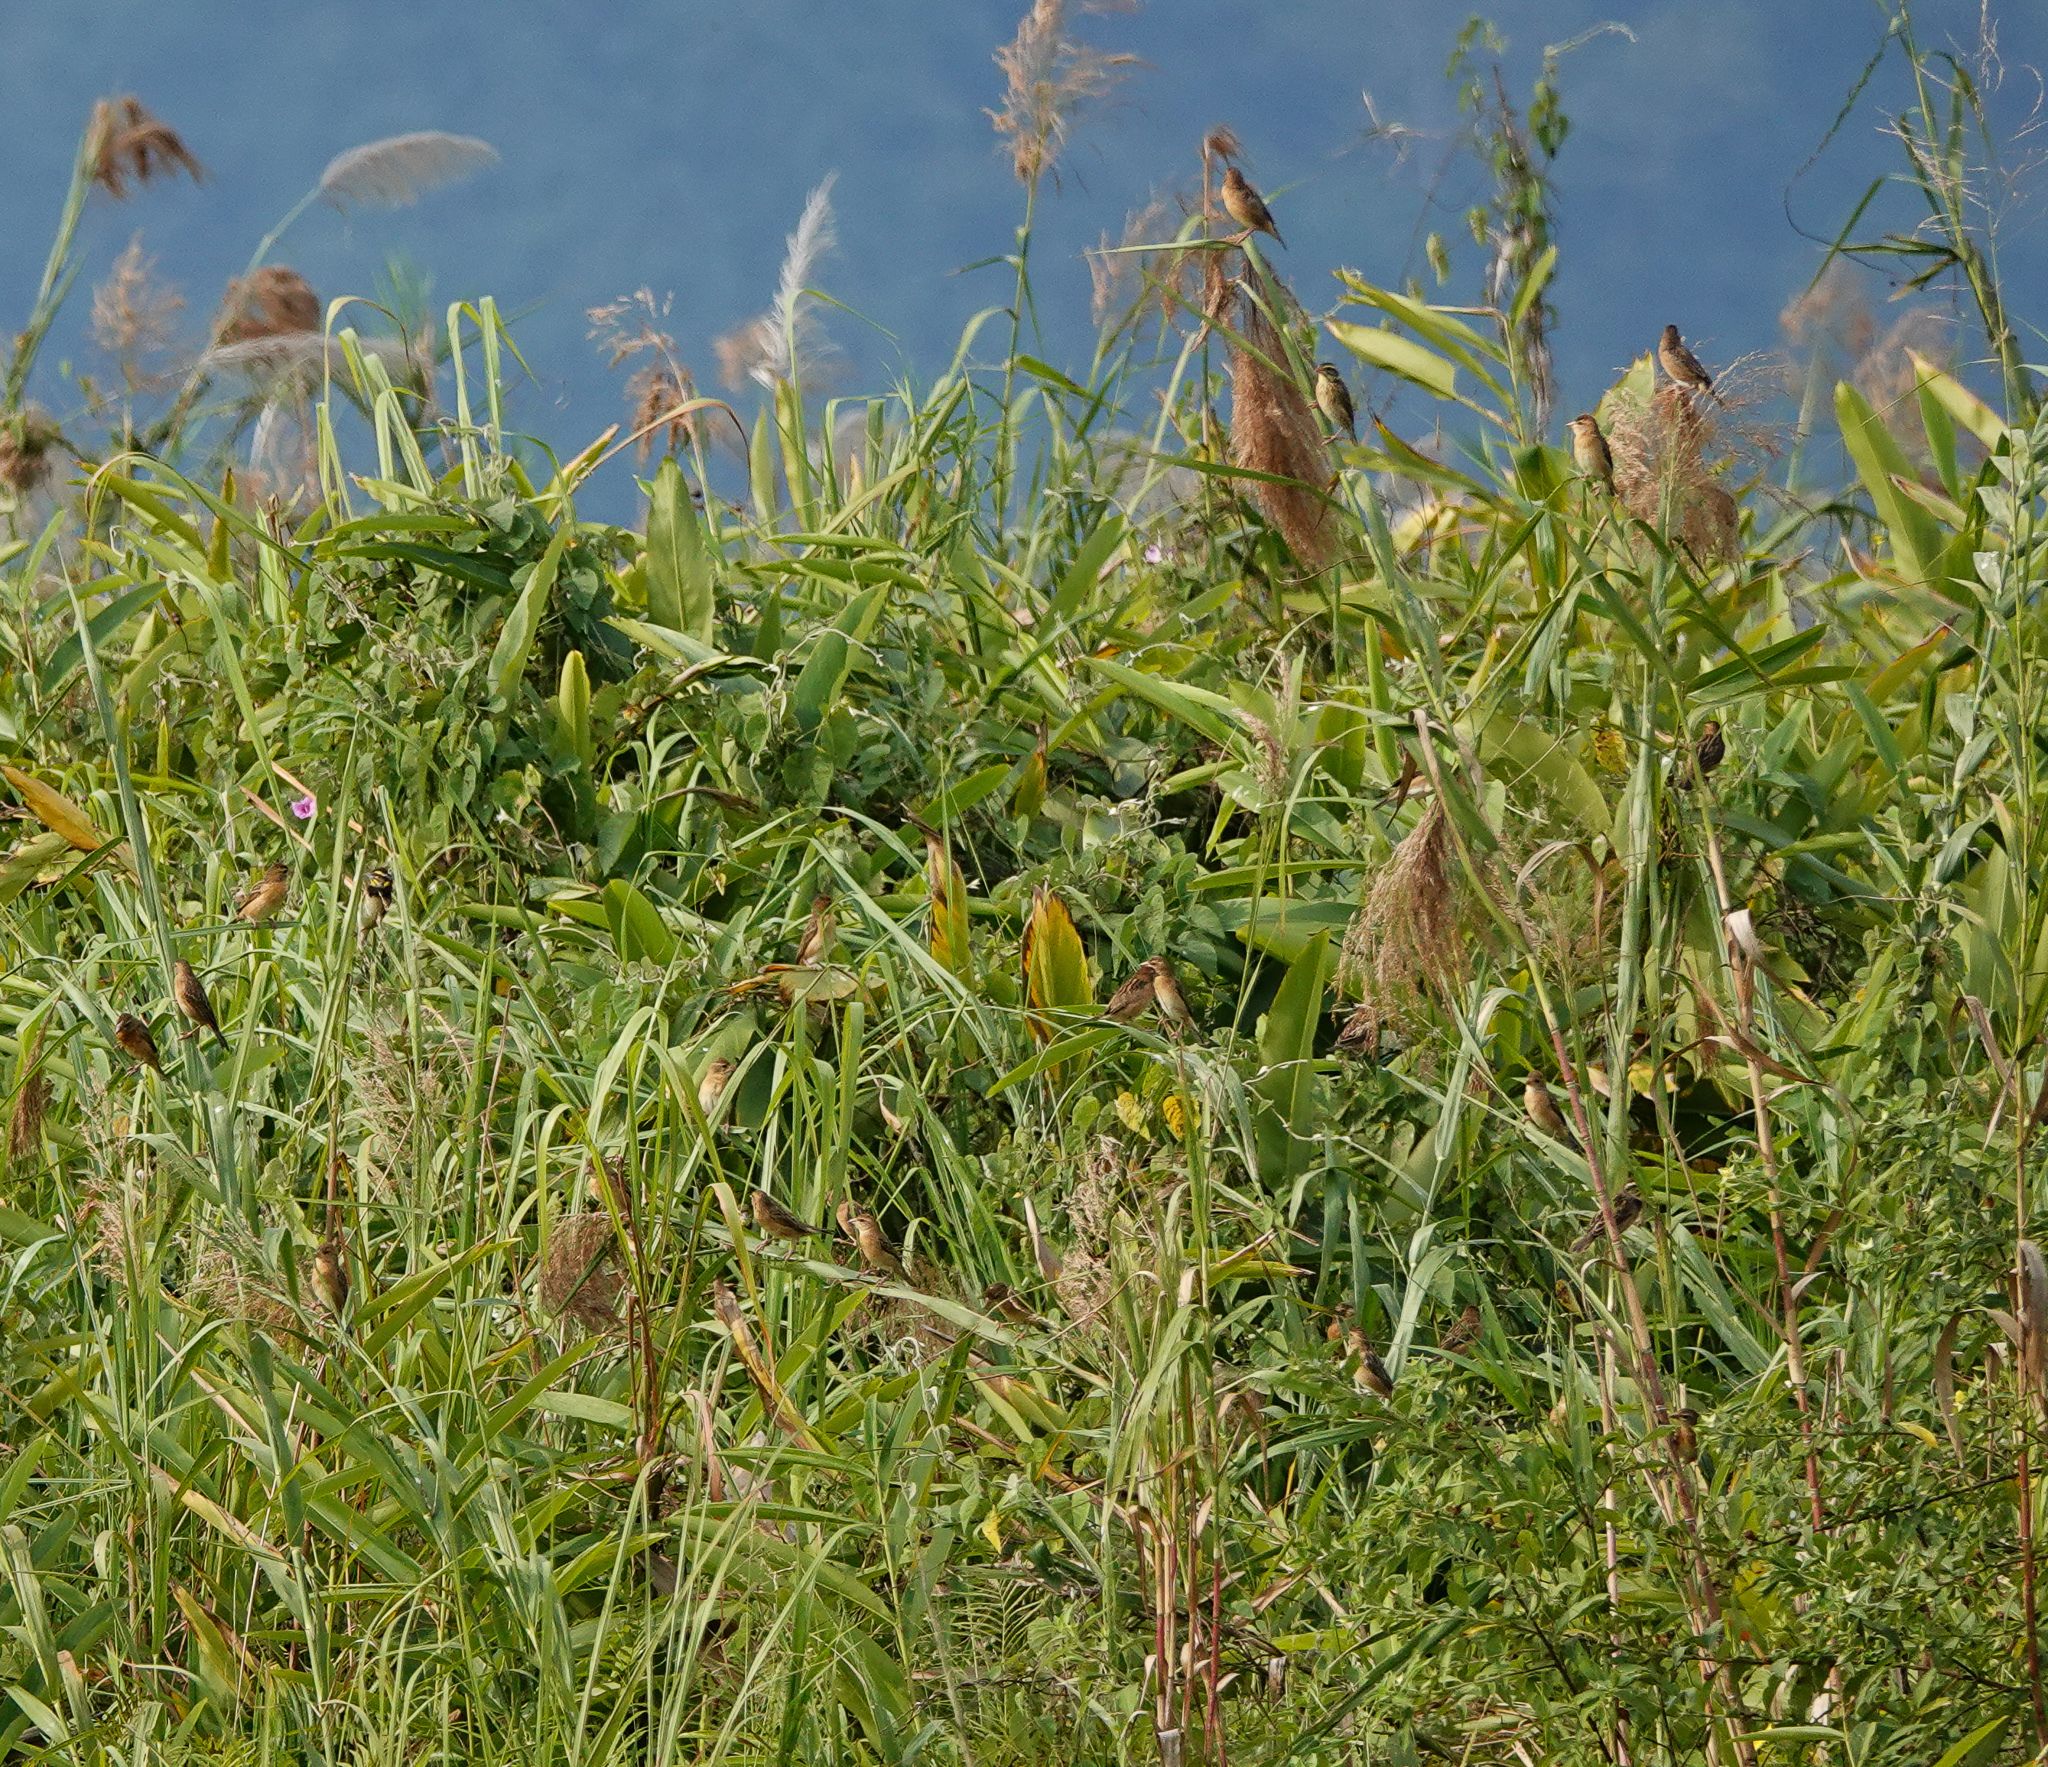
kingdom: Animalia
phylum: Chordata
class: Aves
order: Passeriformes
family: Ploceidae
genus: Ploceus
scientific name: Ploceus philippinus
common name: Baya weaver
